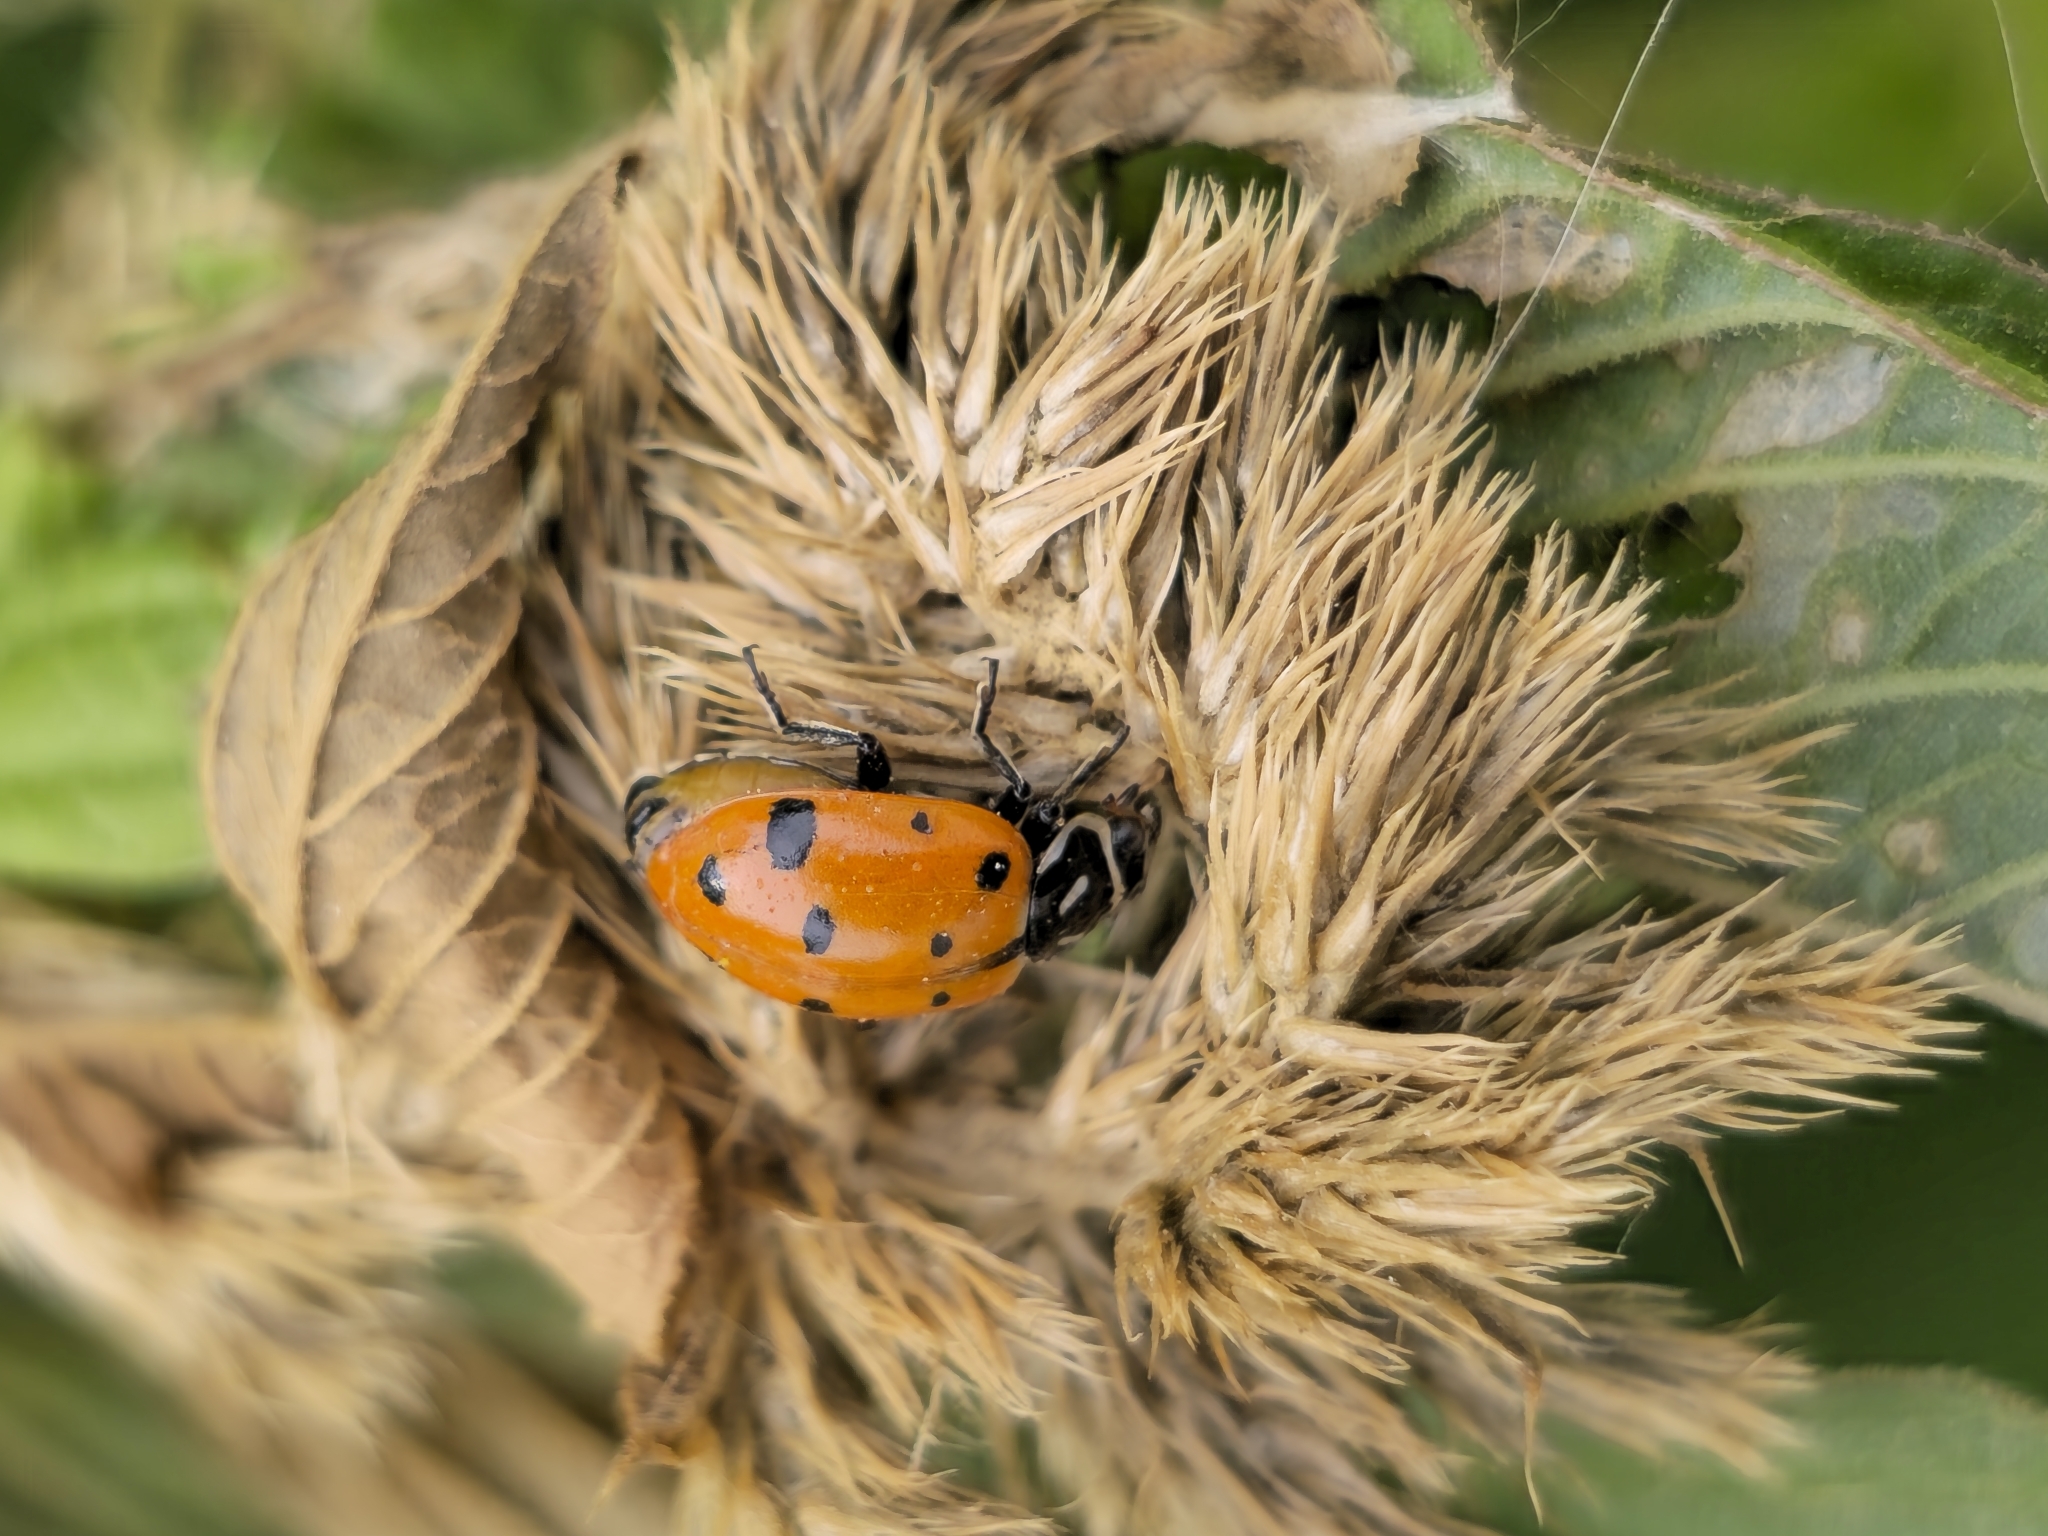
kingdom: Animalia
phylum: Arthropoda
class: Insecta
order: Coleoptera
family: Coccinellidae
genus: Hippodamia
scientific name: Hippodamia convergens
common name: Convergent lady beetle
